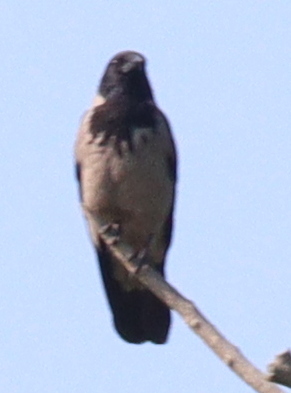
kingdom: Animalia
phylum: Chordata
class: Aves
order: Passeriformes
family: Corvidae
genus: Corvus
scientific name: Corvus cornix
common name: Hooded crow
